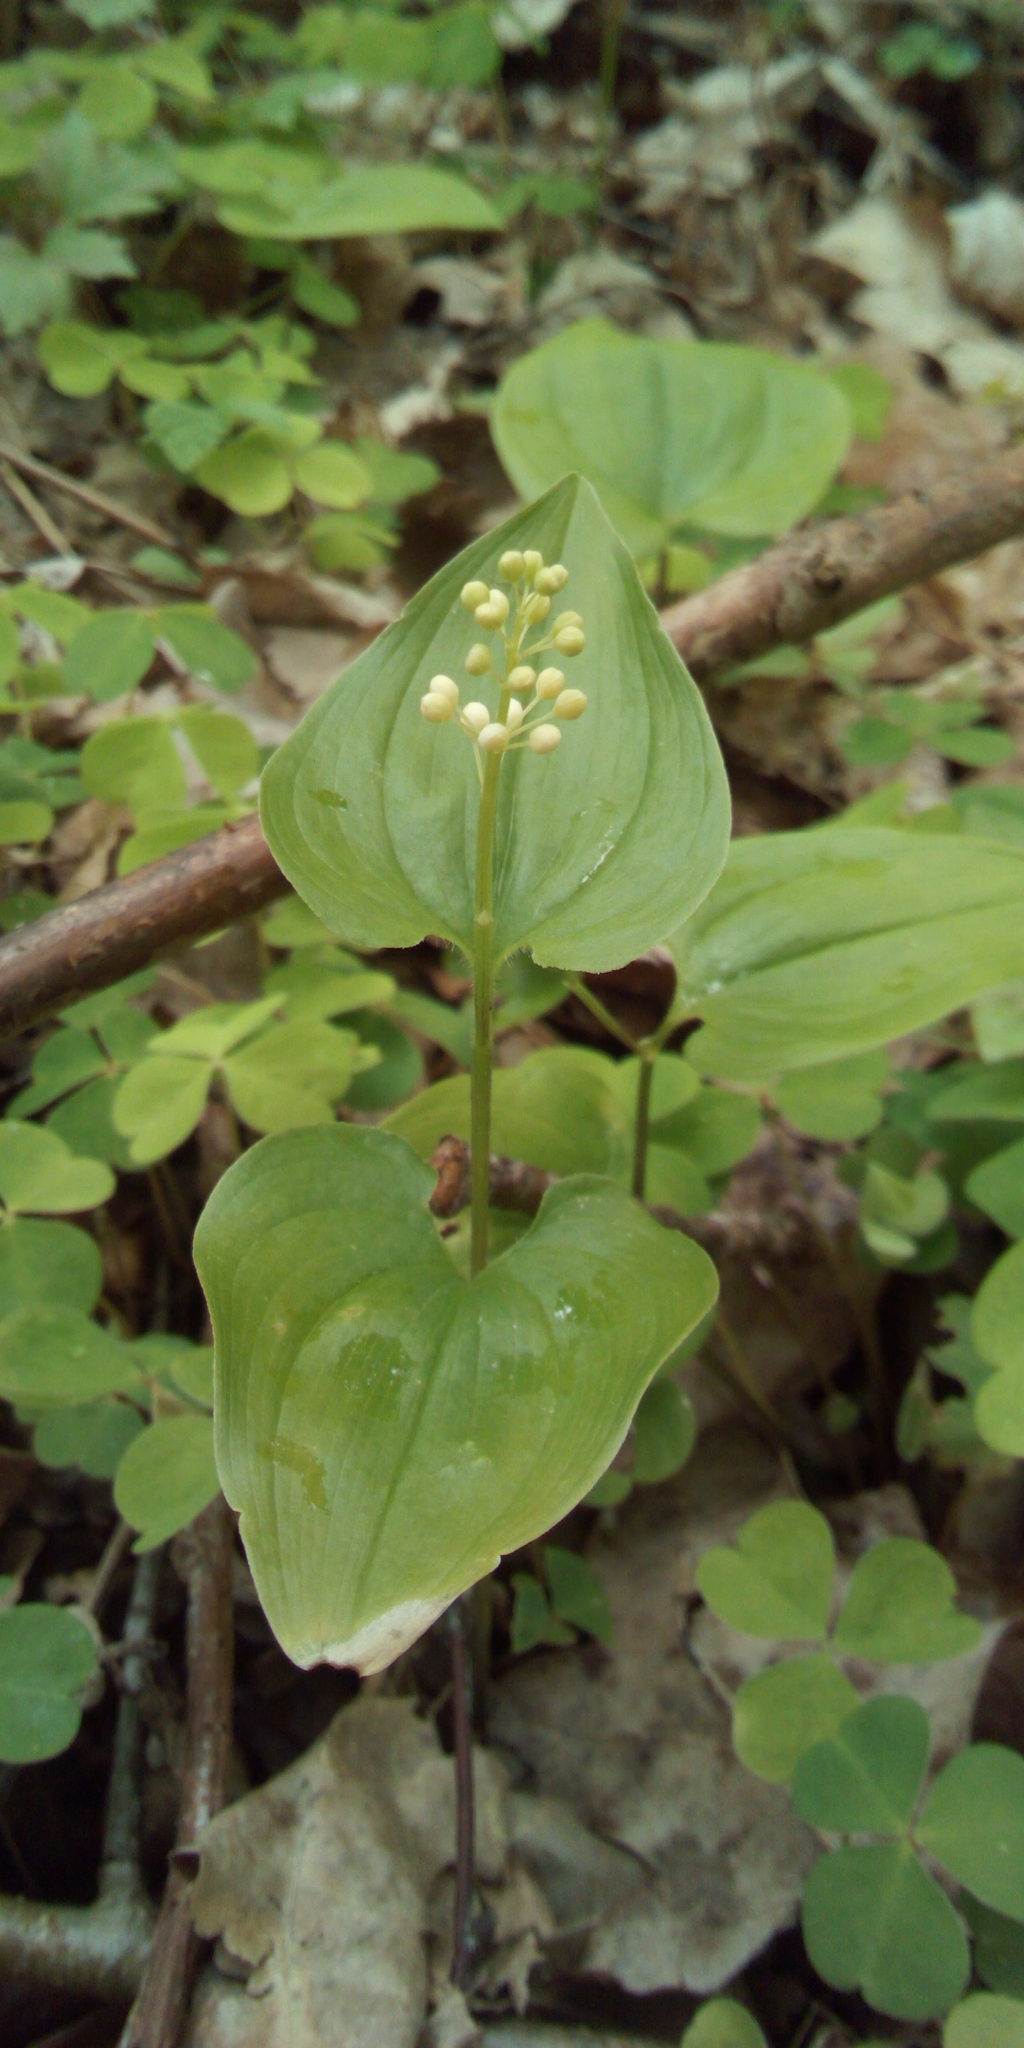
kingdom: Plantae
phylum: Tracheophyta
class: Liliopsida
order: Asparagales
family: Asparagaceae
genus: Maianthemum
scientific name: Maianthemum bifolium
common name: May lily
